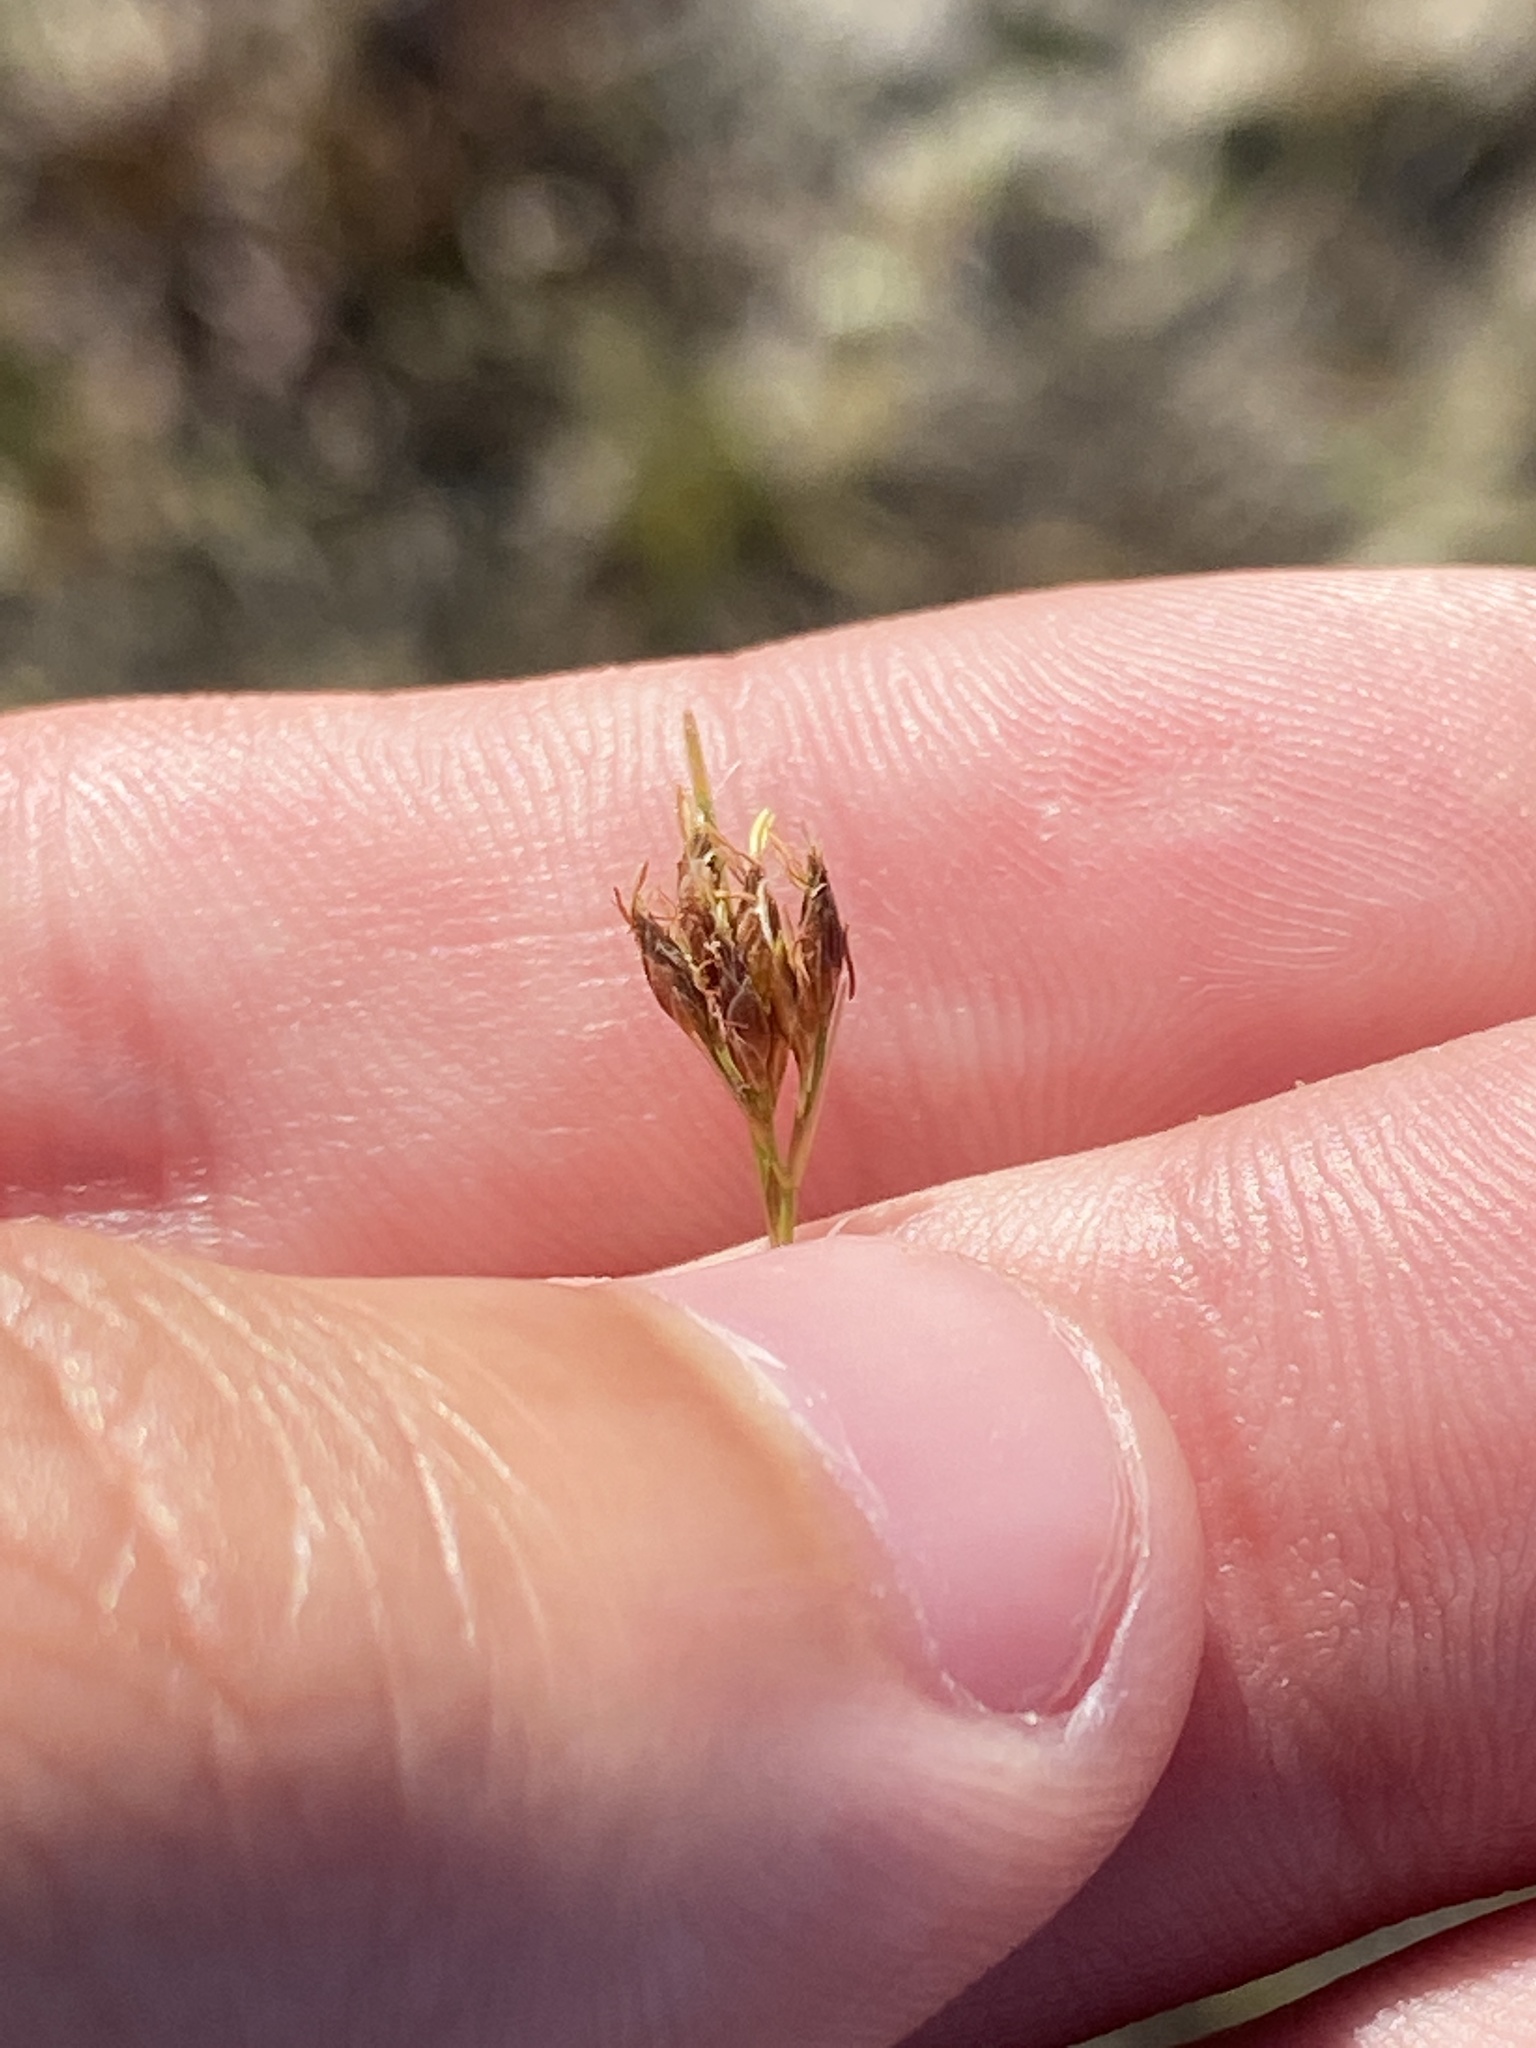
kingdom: Plantae
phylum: Tracheophyta
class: Liliopsida
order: Poales
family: Cyperaceae
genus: Rhynchospora
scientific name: Rhynchospora divergens
